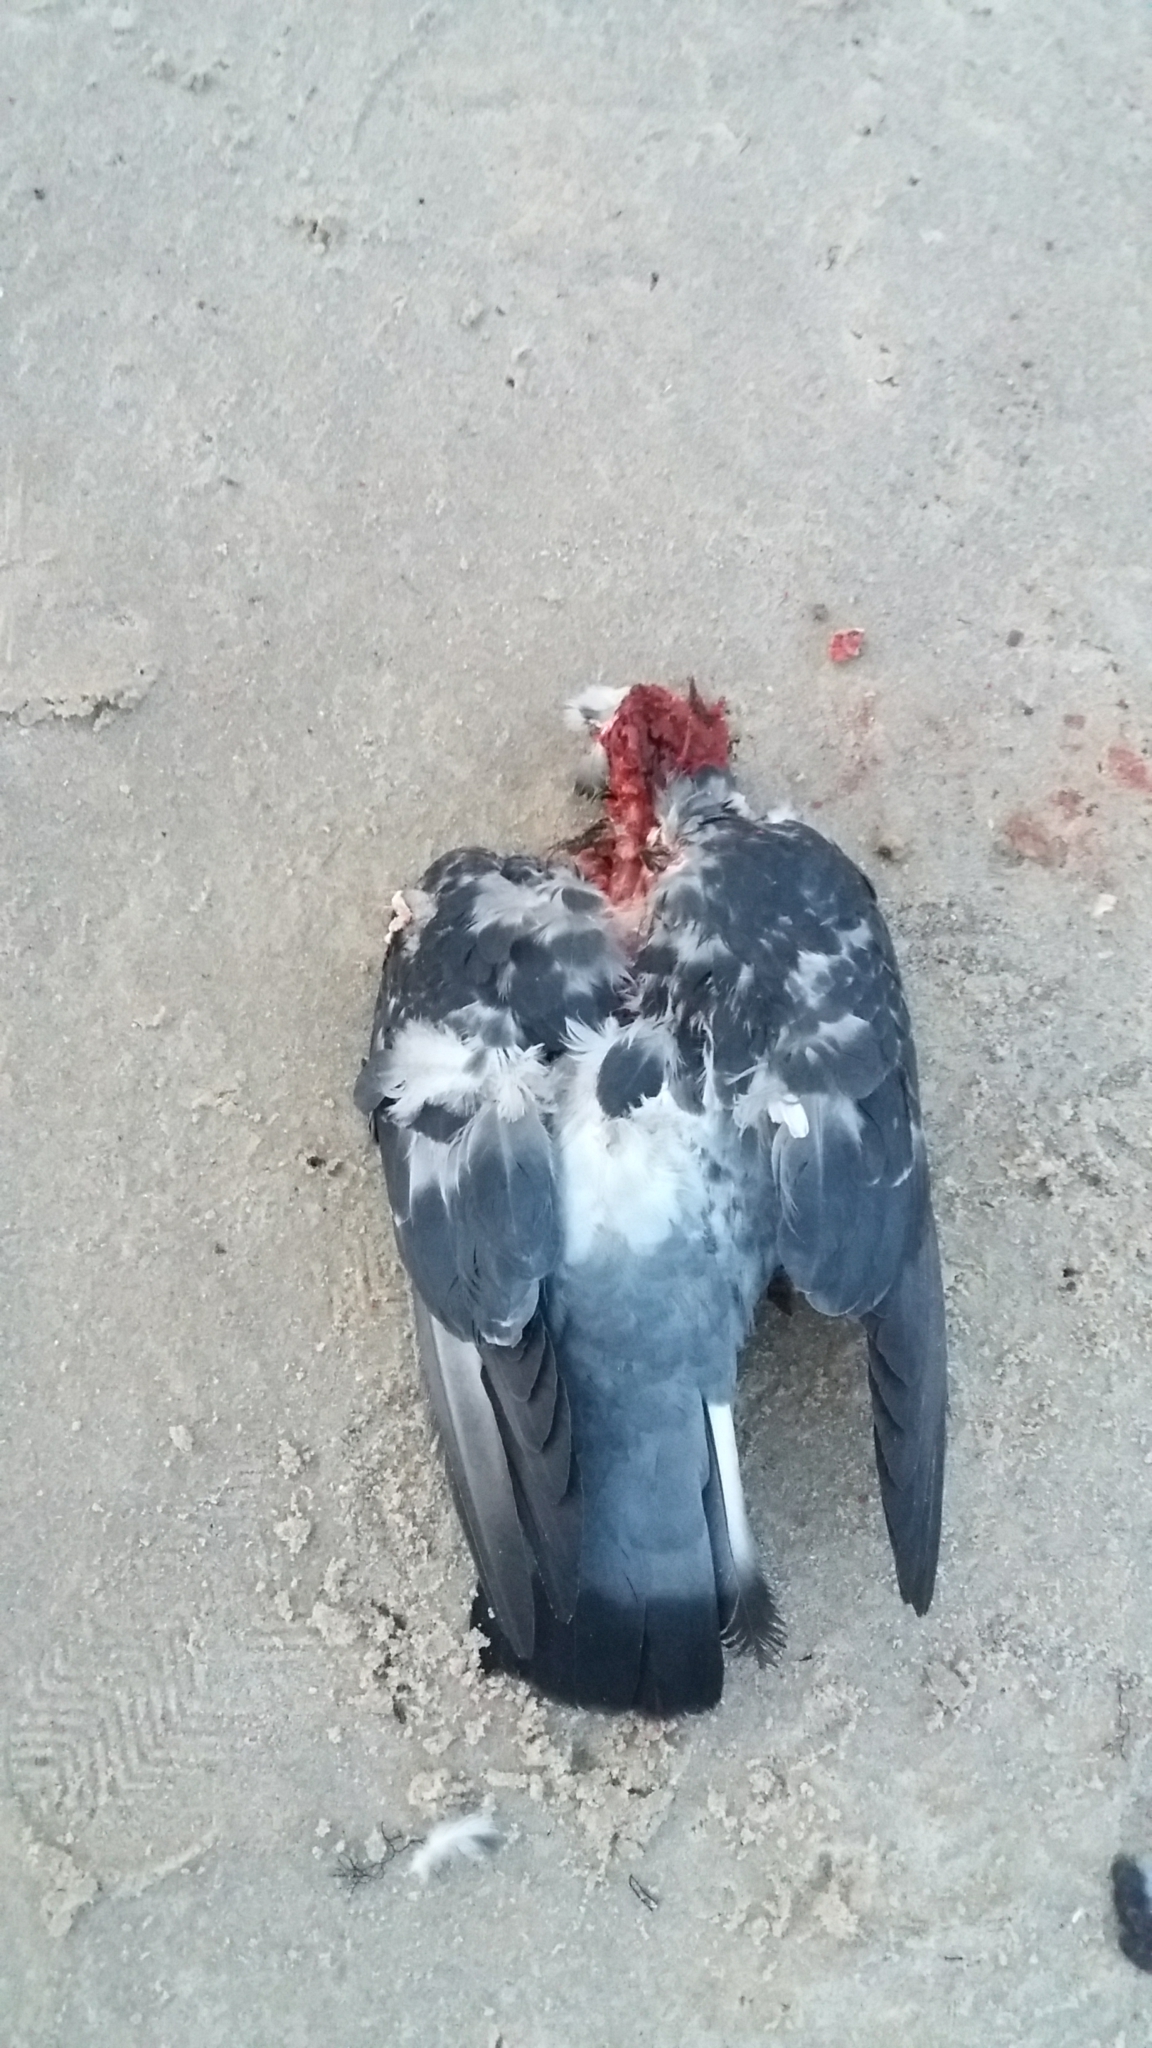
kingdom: Animalia
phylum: Chordata
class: Aves
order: Columbiformes
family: Columbidae
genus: Columba
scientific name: Columba livia
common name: Rock pigeon
